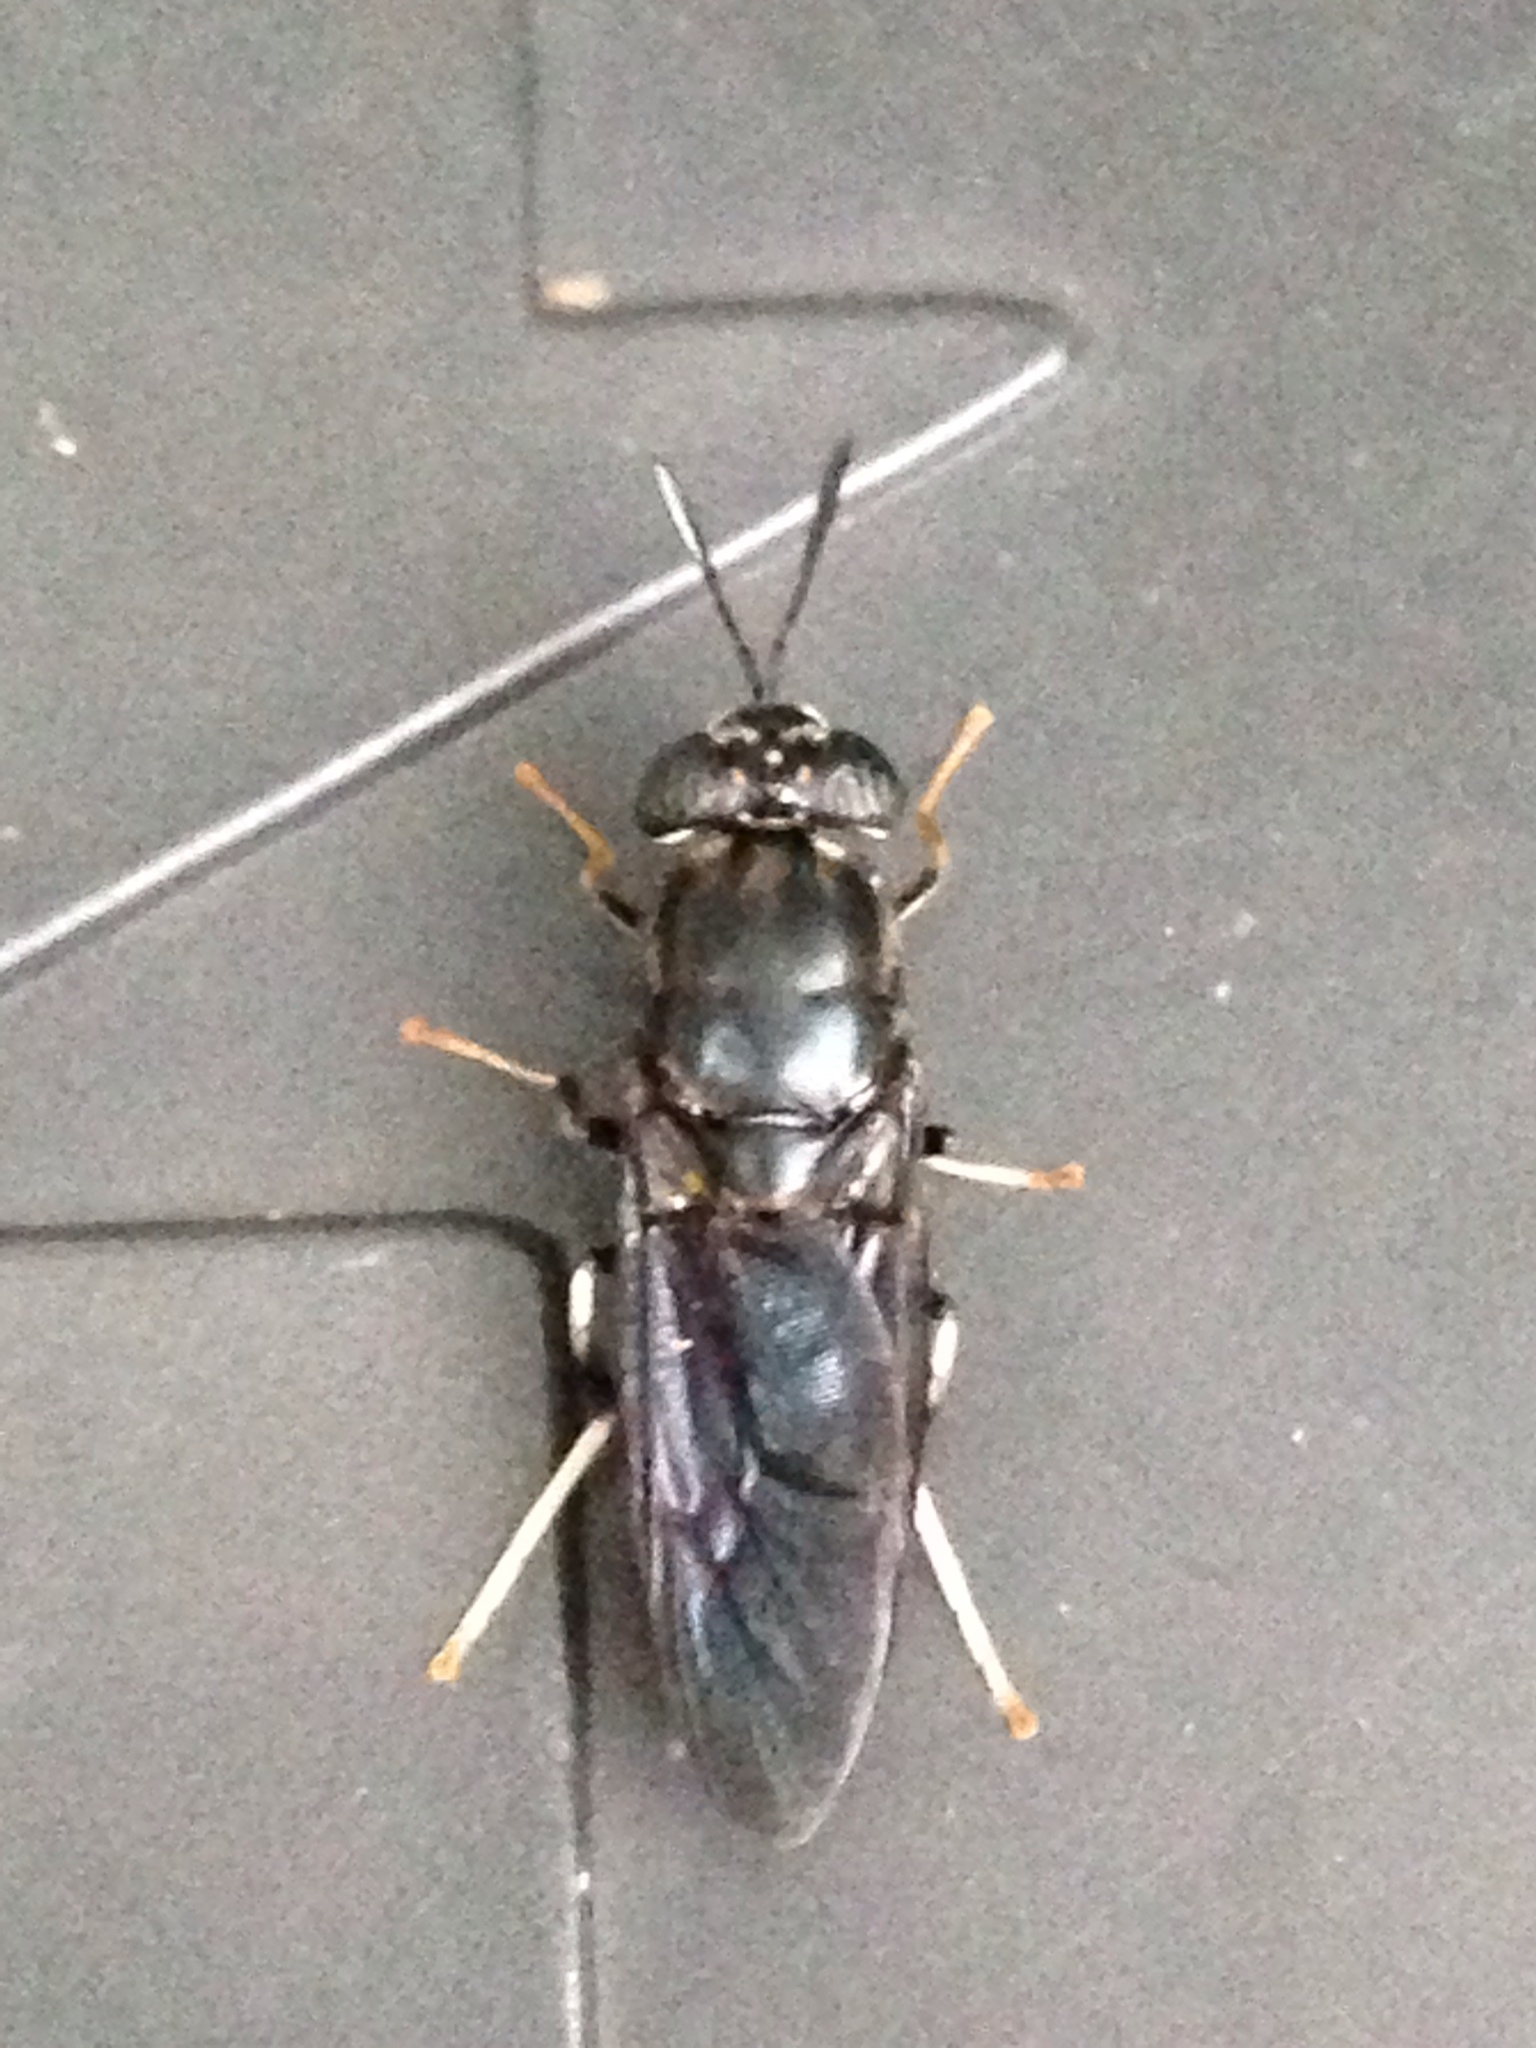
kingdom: Animalia
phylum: Arthropoda
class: Insecta
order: Diptera
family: Stratiomyidae
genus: Hermetia
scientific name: Hermetia illucens
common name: Black soldier fly
